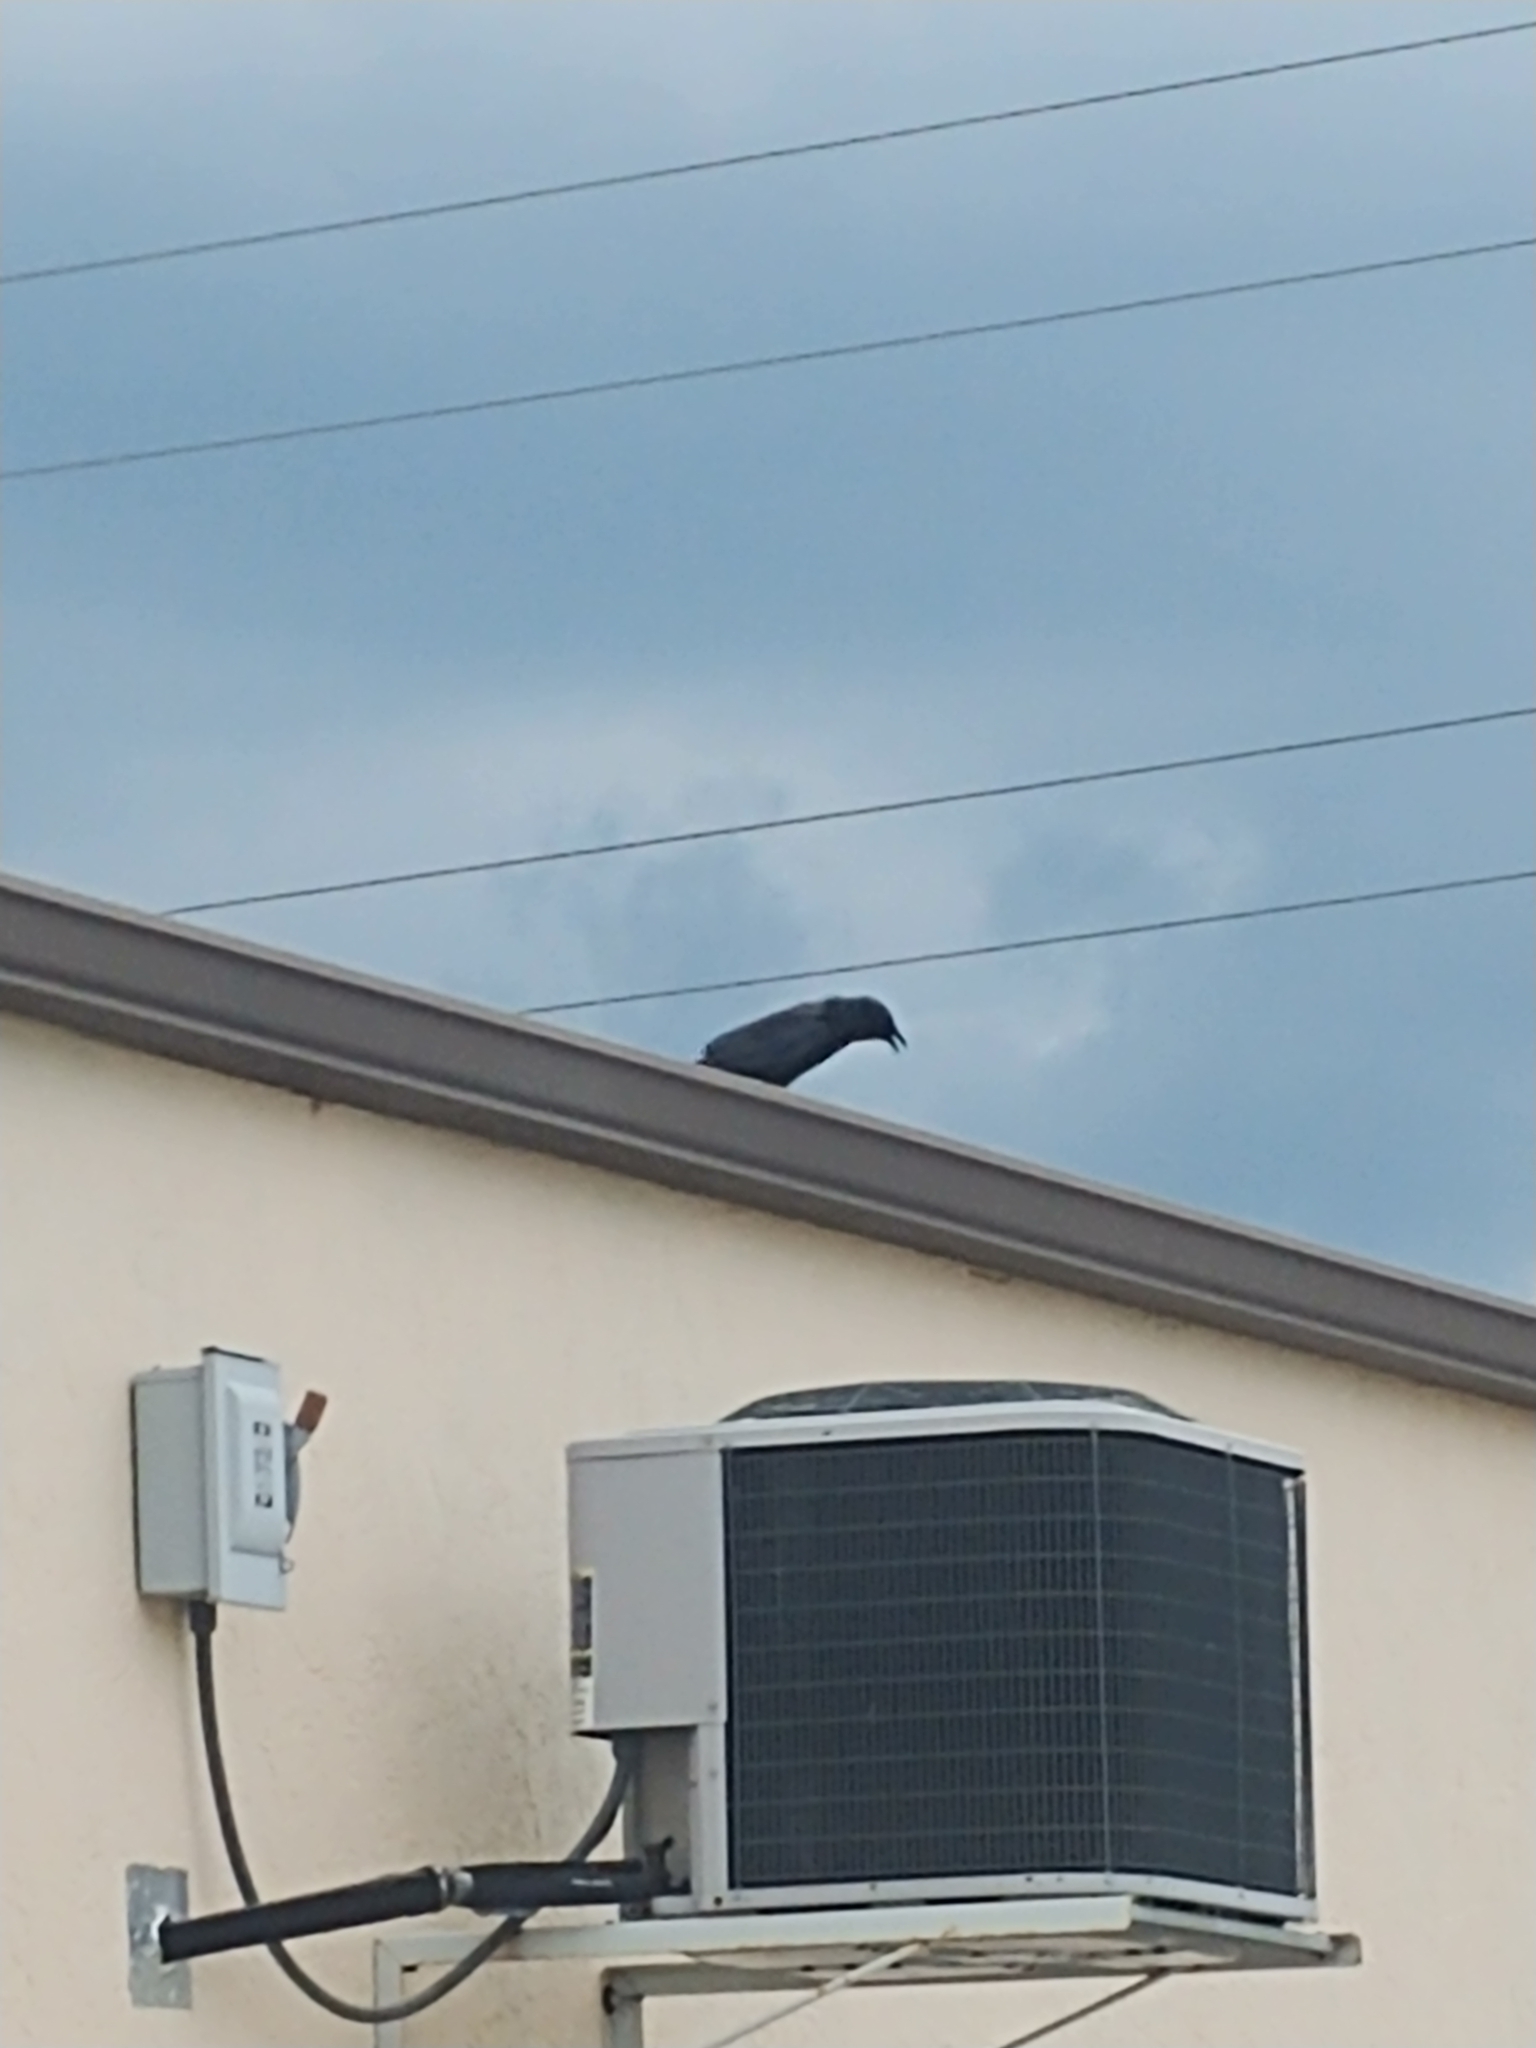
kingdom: Animalia
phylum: Chordata
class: Aves
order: Passeriformes
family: Corvidae
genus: Corvus
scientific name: Corvus ossifragus
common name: Fish crow
